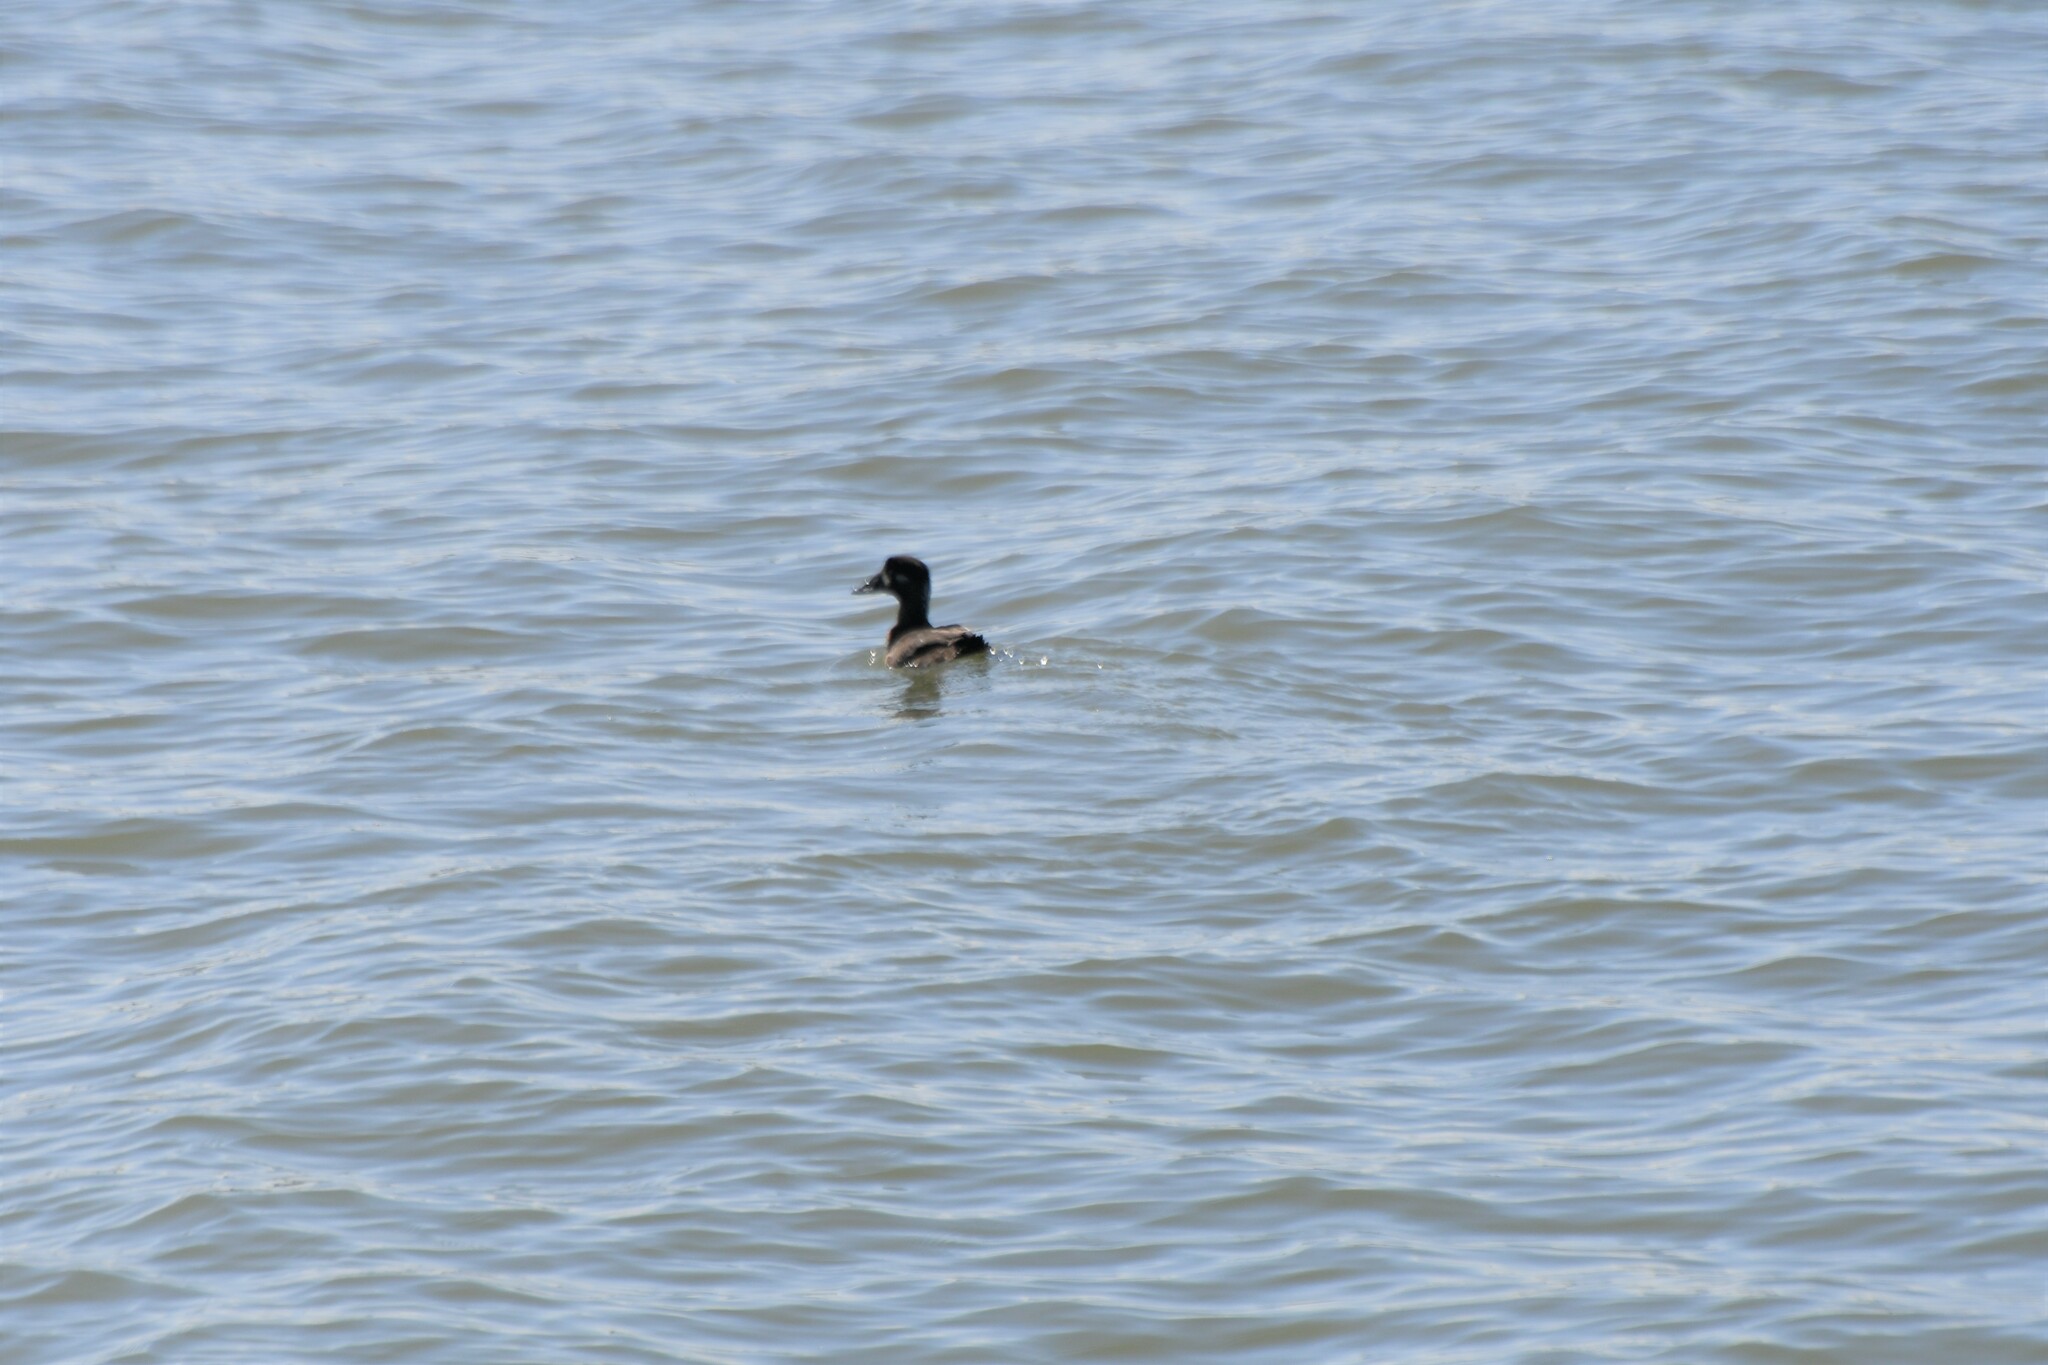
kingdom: Animalia
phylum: Chordata
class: Aves
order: Anseriformes
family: Anatidae
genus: Melanitta
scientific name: Melanitta perspicillata
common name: Surf scoter
